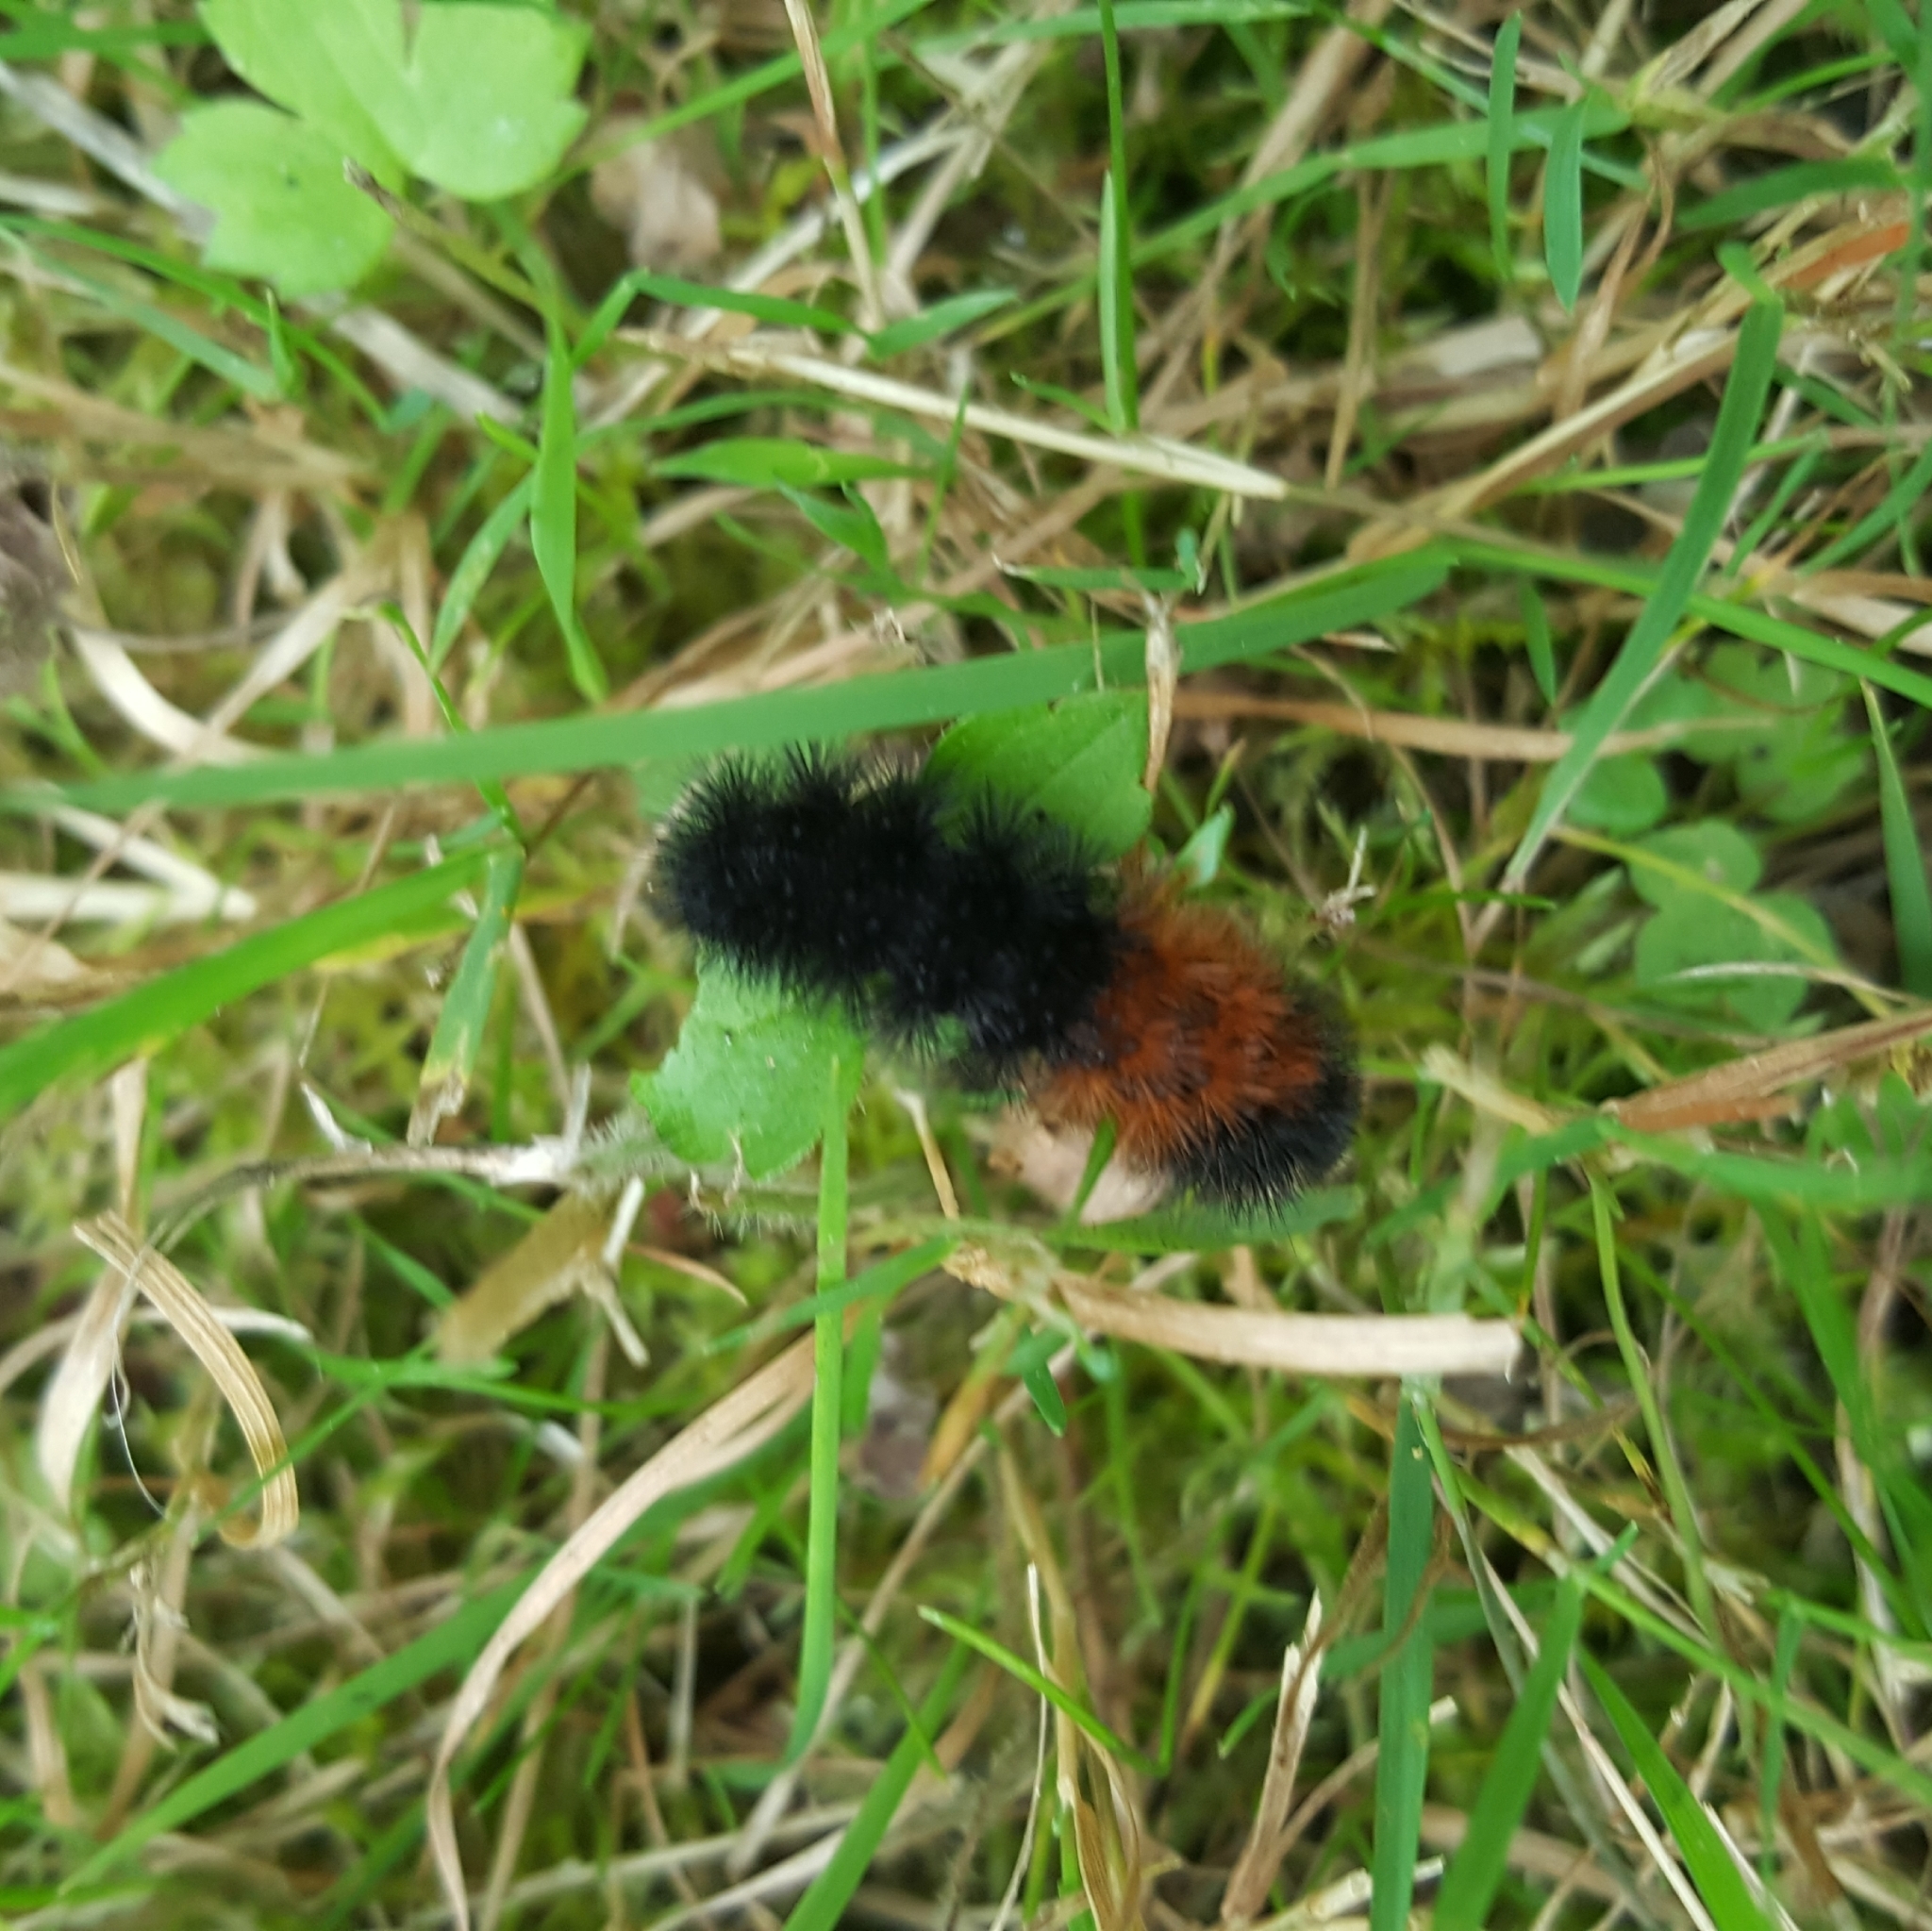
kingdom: Animalia
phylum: Arthropoda
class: Insecta
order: Lepidoptera
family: Erebidae
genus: Pyrrharctia
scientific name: Pyrrharctia isabella
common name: Isabella tiger moth
